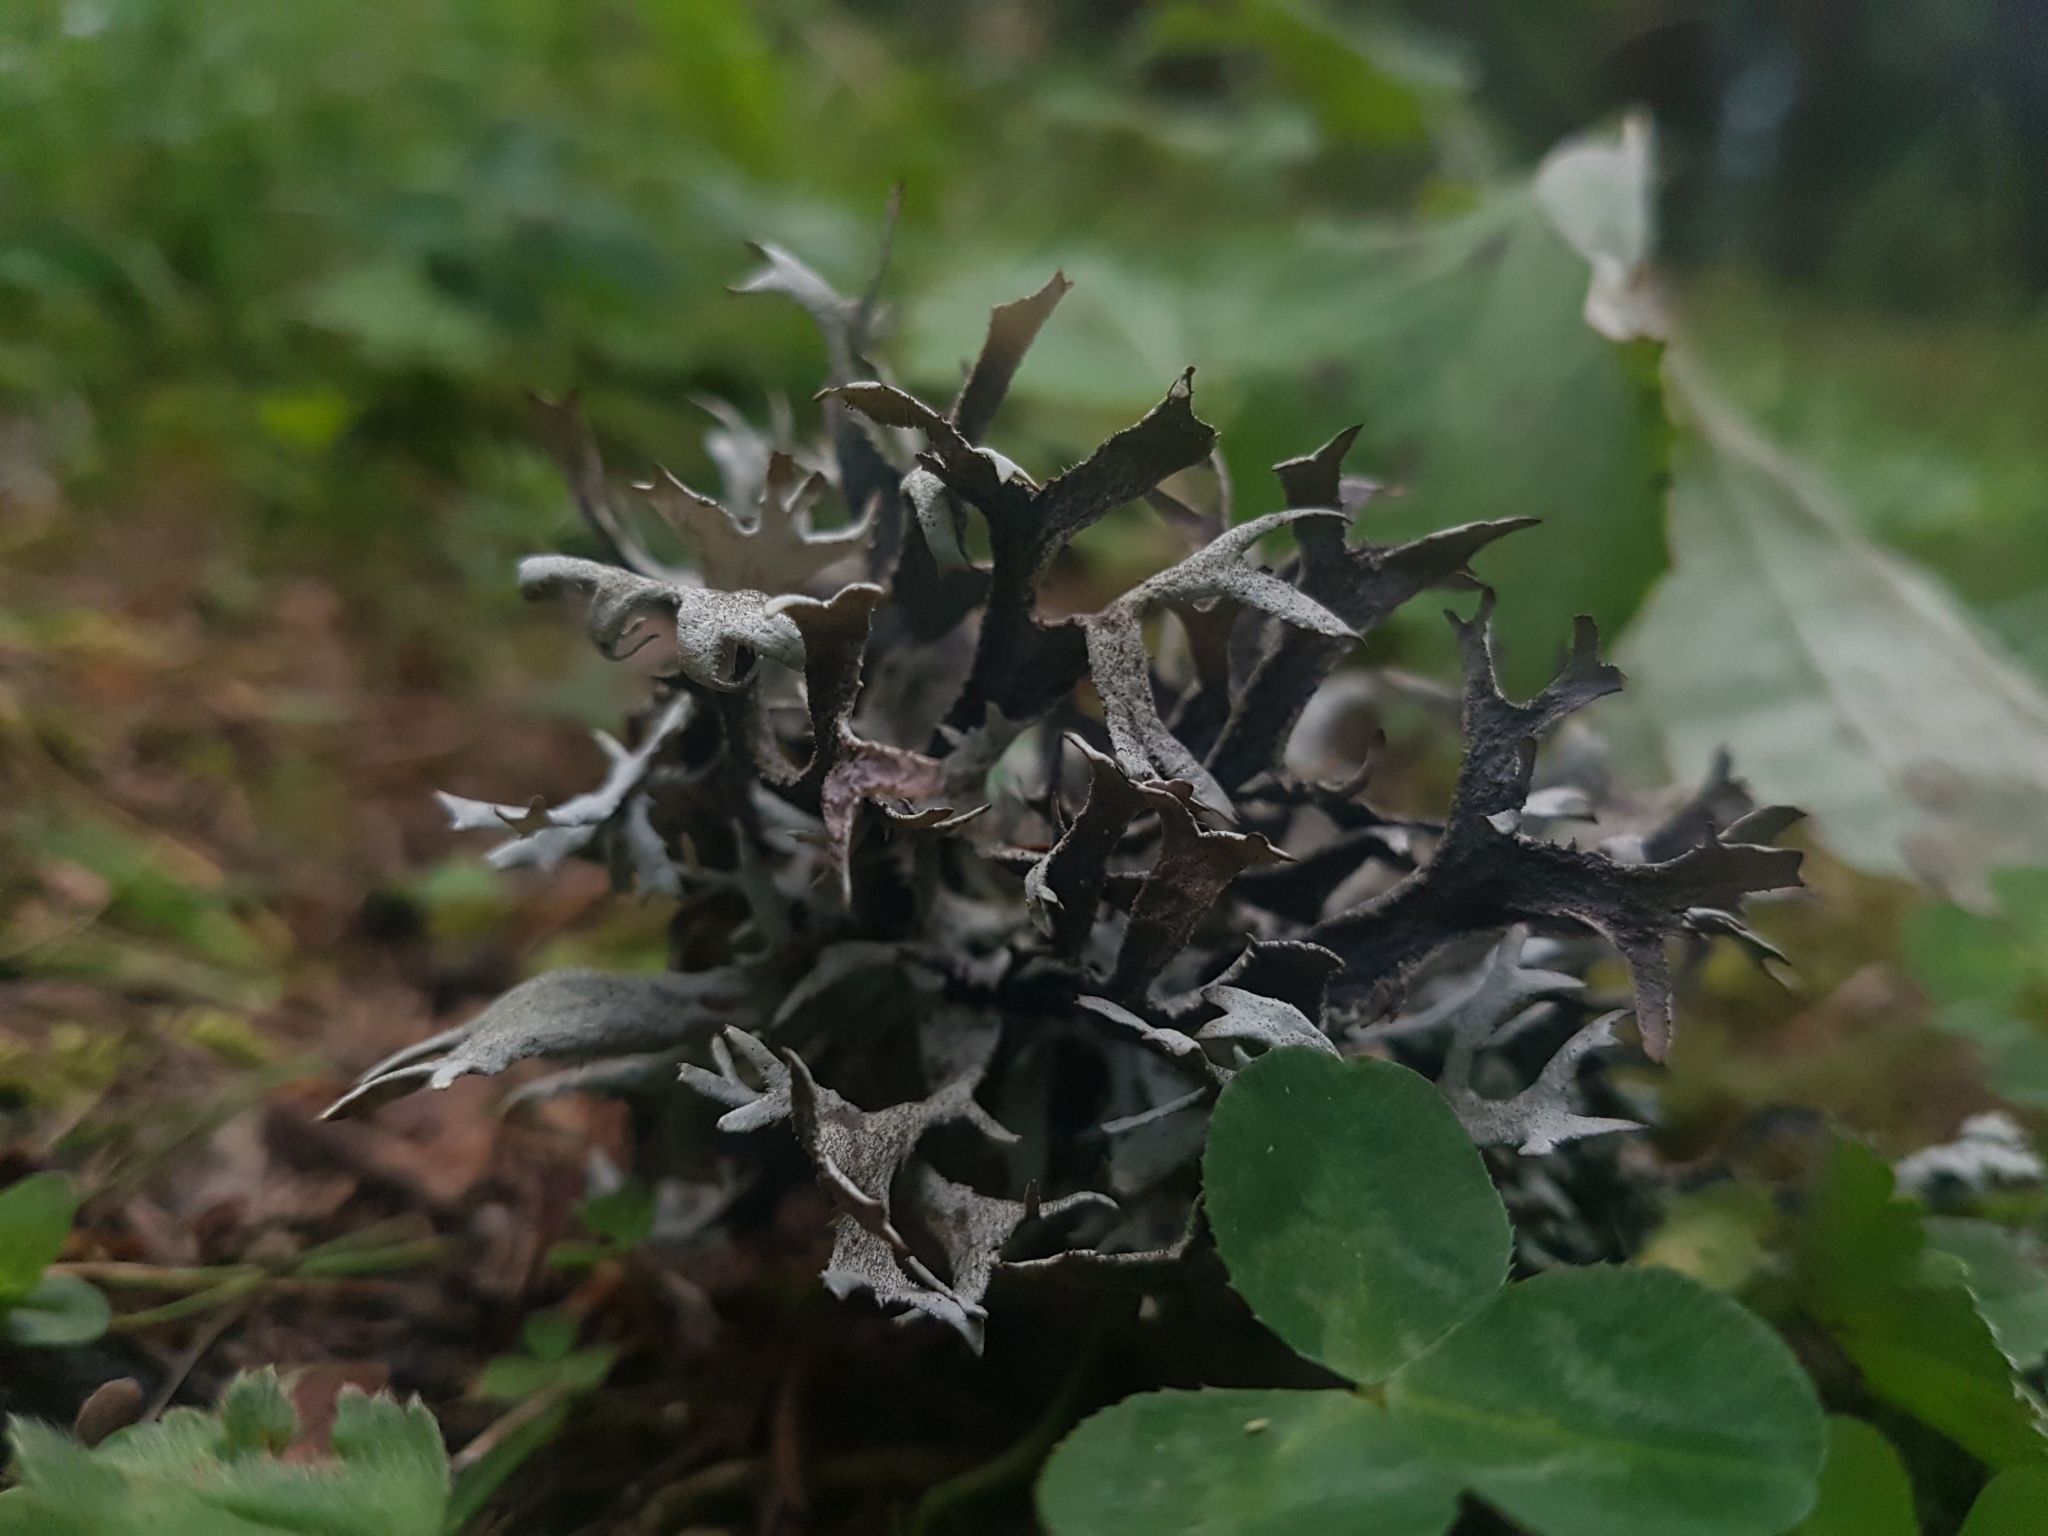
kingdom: Fungi
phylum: Ascomycota
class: Lecanoromycetes
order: Lecanorales
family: Parmeliaceae
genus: Pseudevernia
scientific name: Pseudevernia furfuracea
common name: Tree moss
